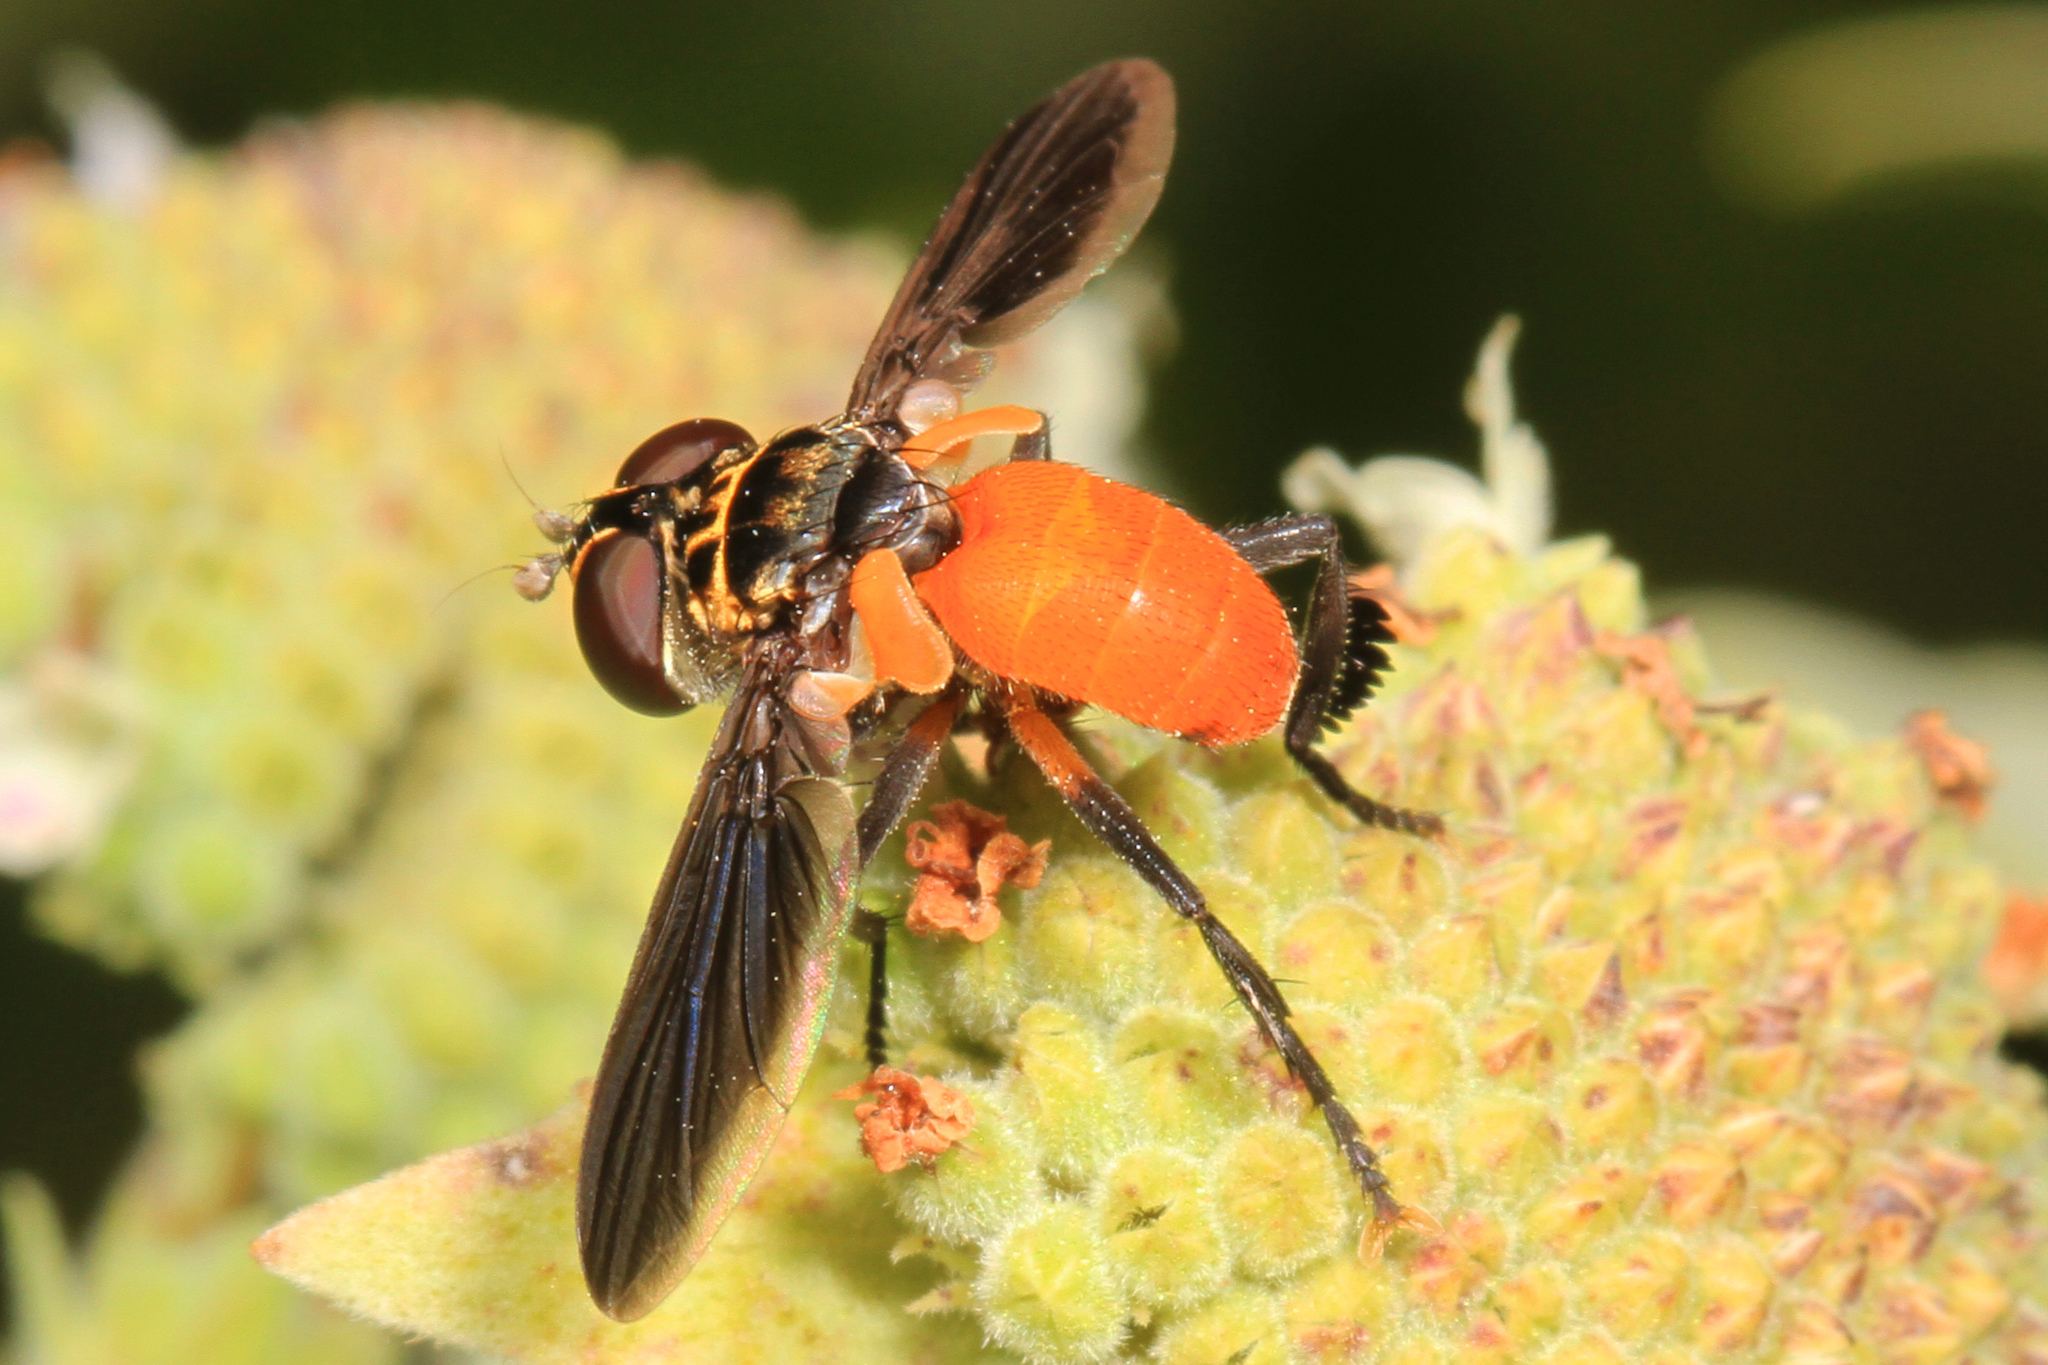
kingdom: Animalia
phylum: Arthropoda
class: Insecta
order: Diptera
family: Tachinidae
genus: Trichopoda
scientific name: Trichopoda pennipes
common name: Tachinid fly
